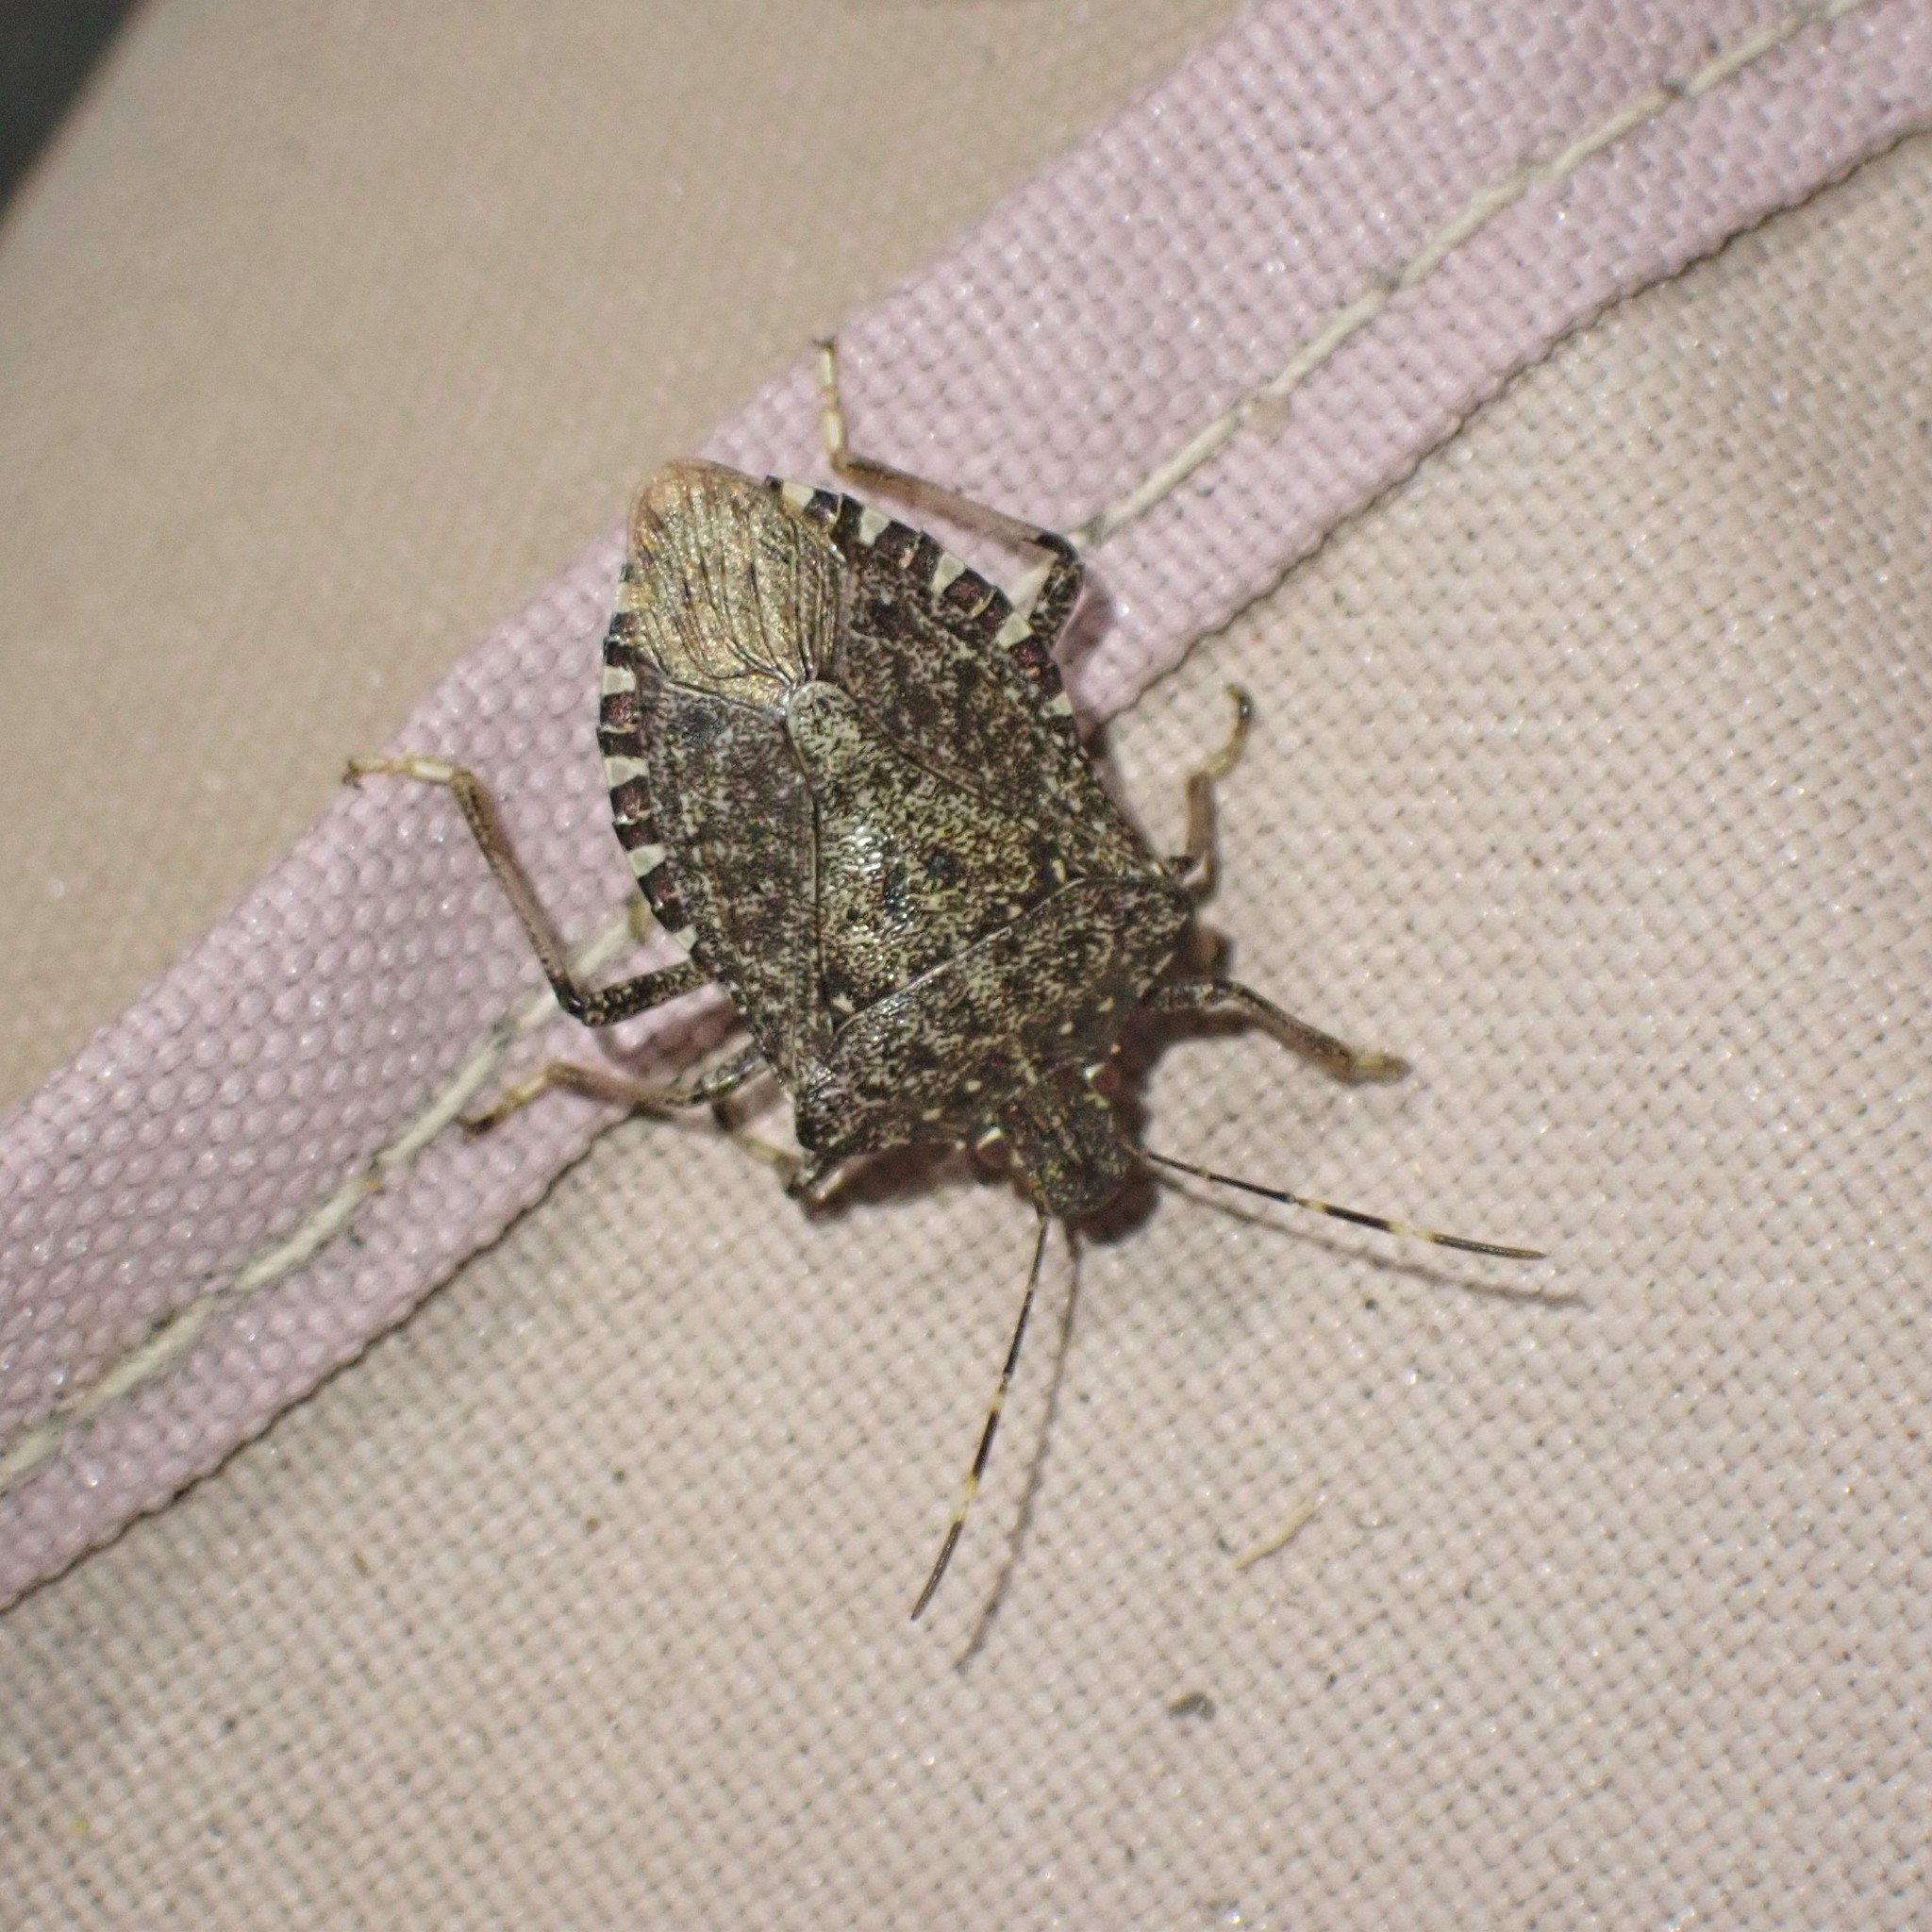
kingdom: Animalia
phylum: Arthropoda
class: Insecta
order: Hemiptera
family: Pentatomidae
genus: Halyomorpha
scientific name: Halyomorpha halys
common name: Brown marmorated stink bug
